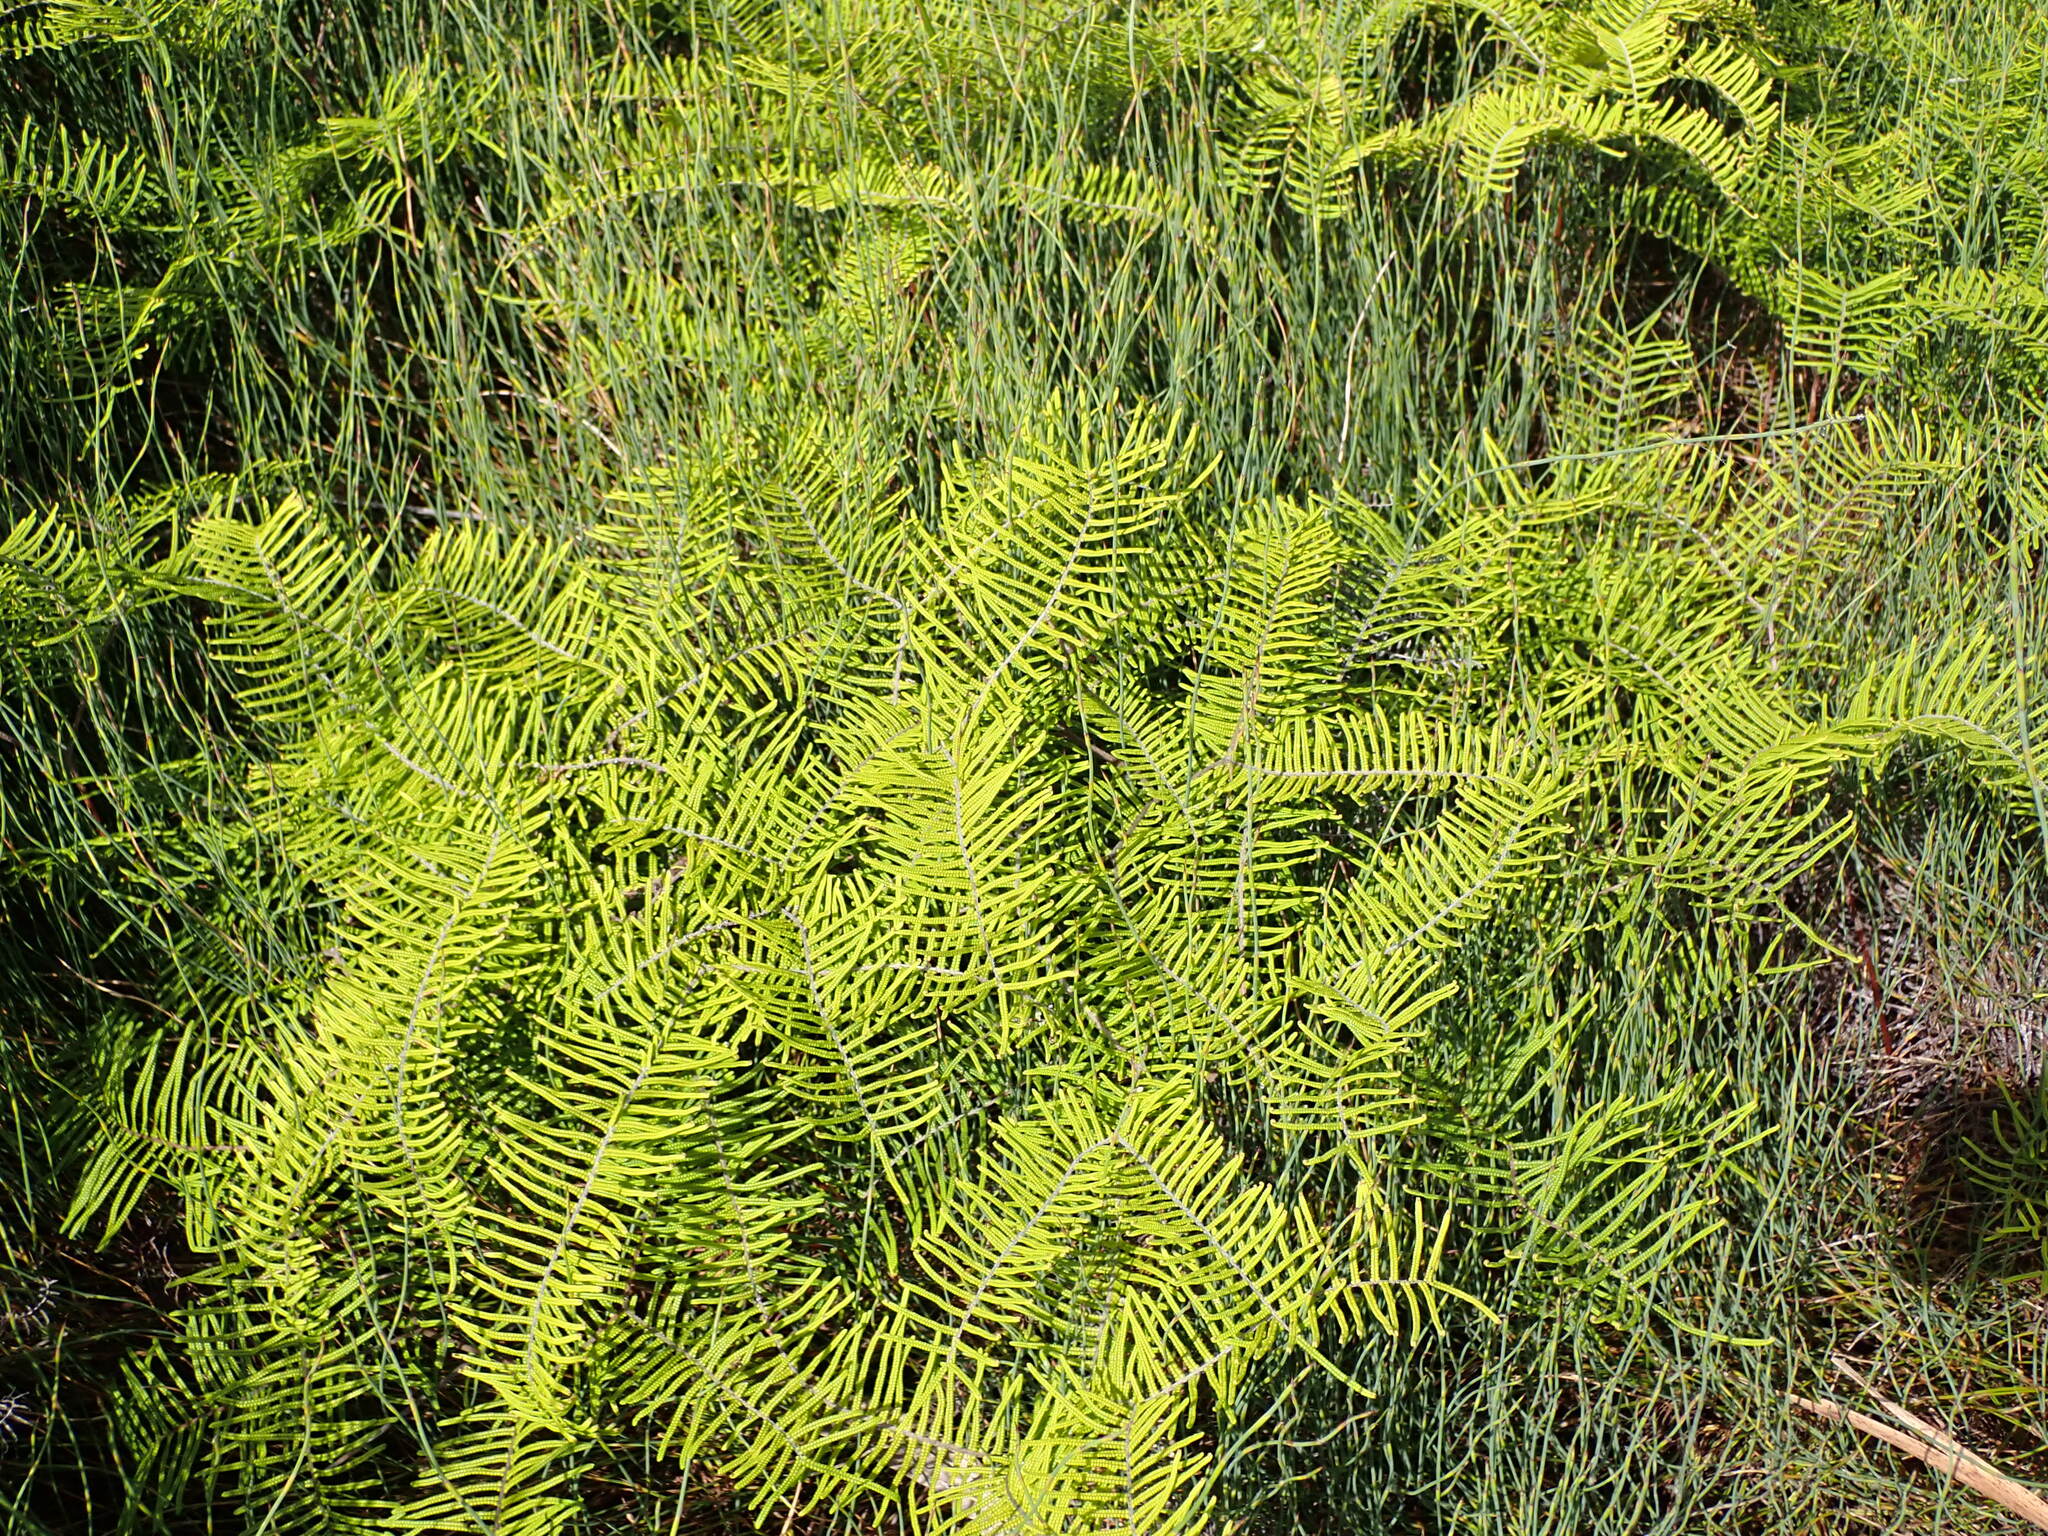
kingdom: Plantae
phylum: Tracheophyta
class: Polypodiopsida
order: Gleicheniales
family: Gleicheniaceae
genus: Gleichenia
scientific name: Gleichenia dicarpa
